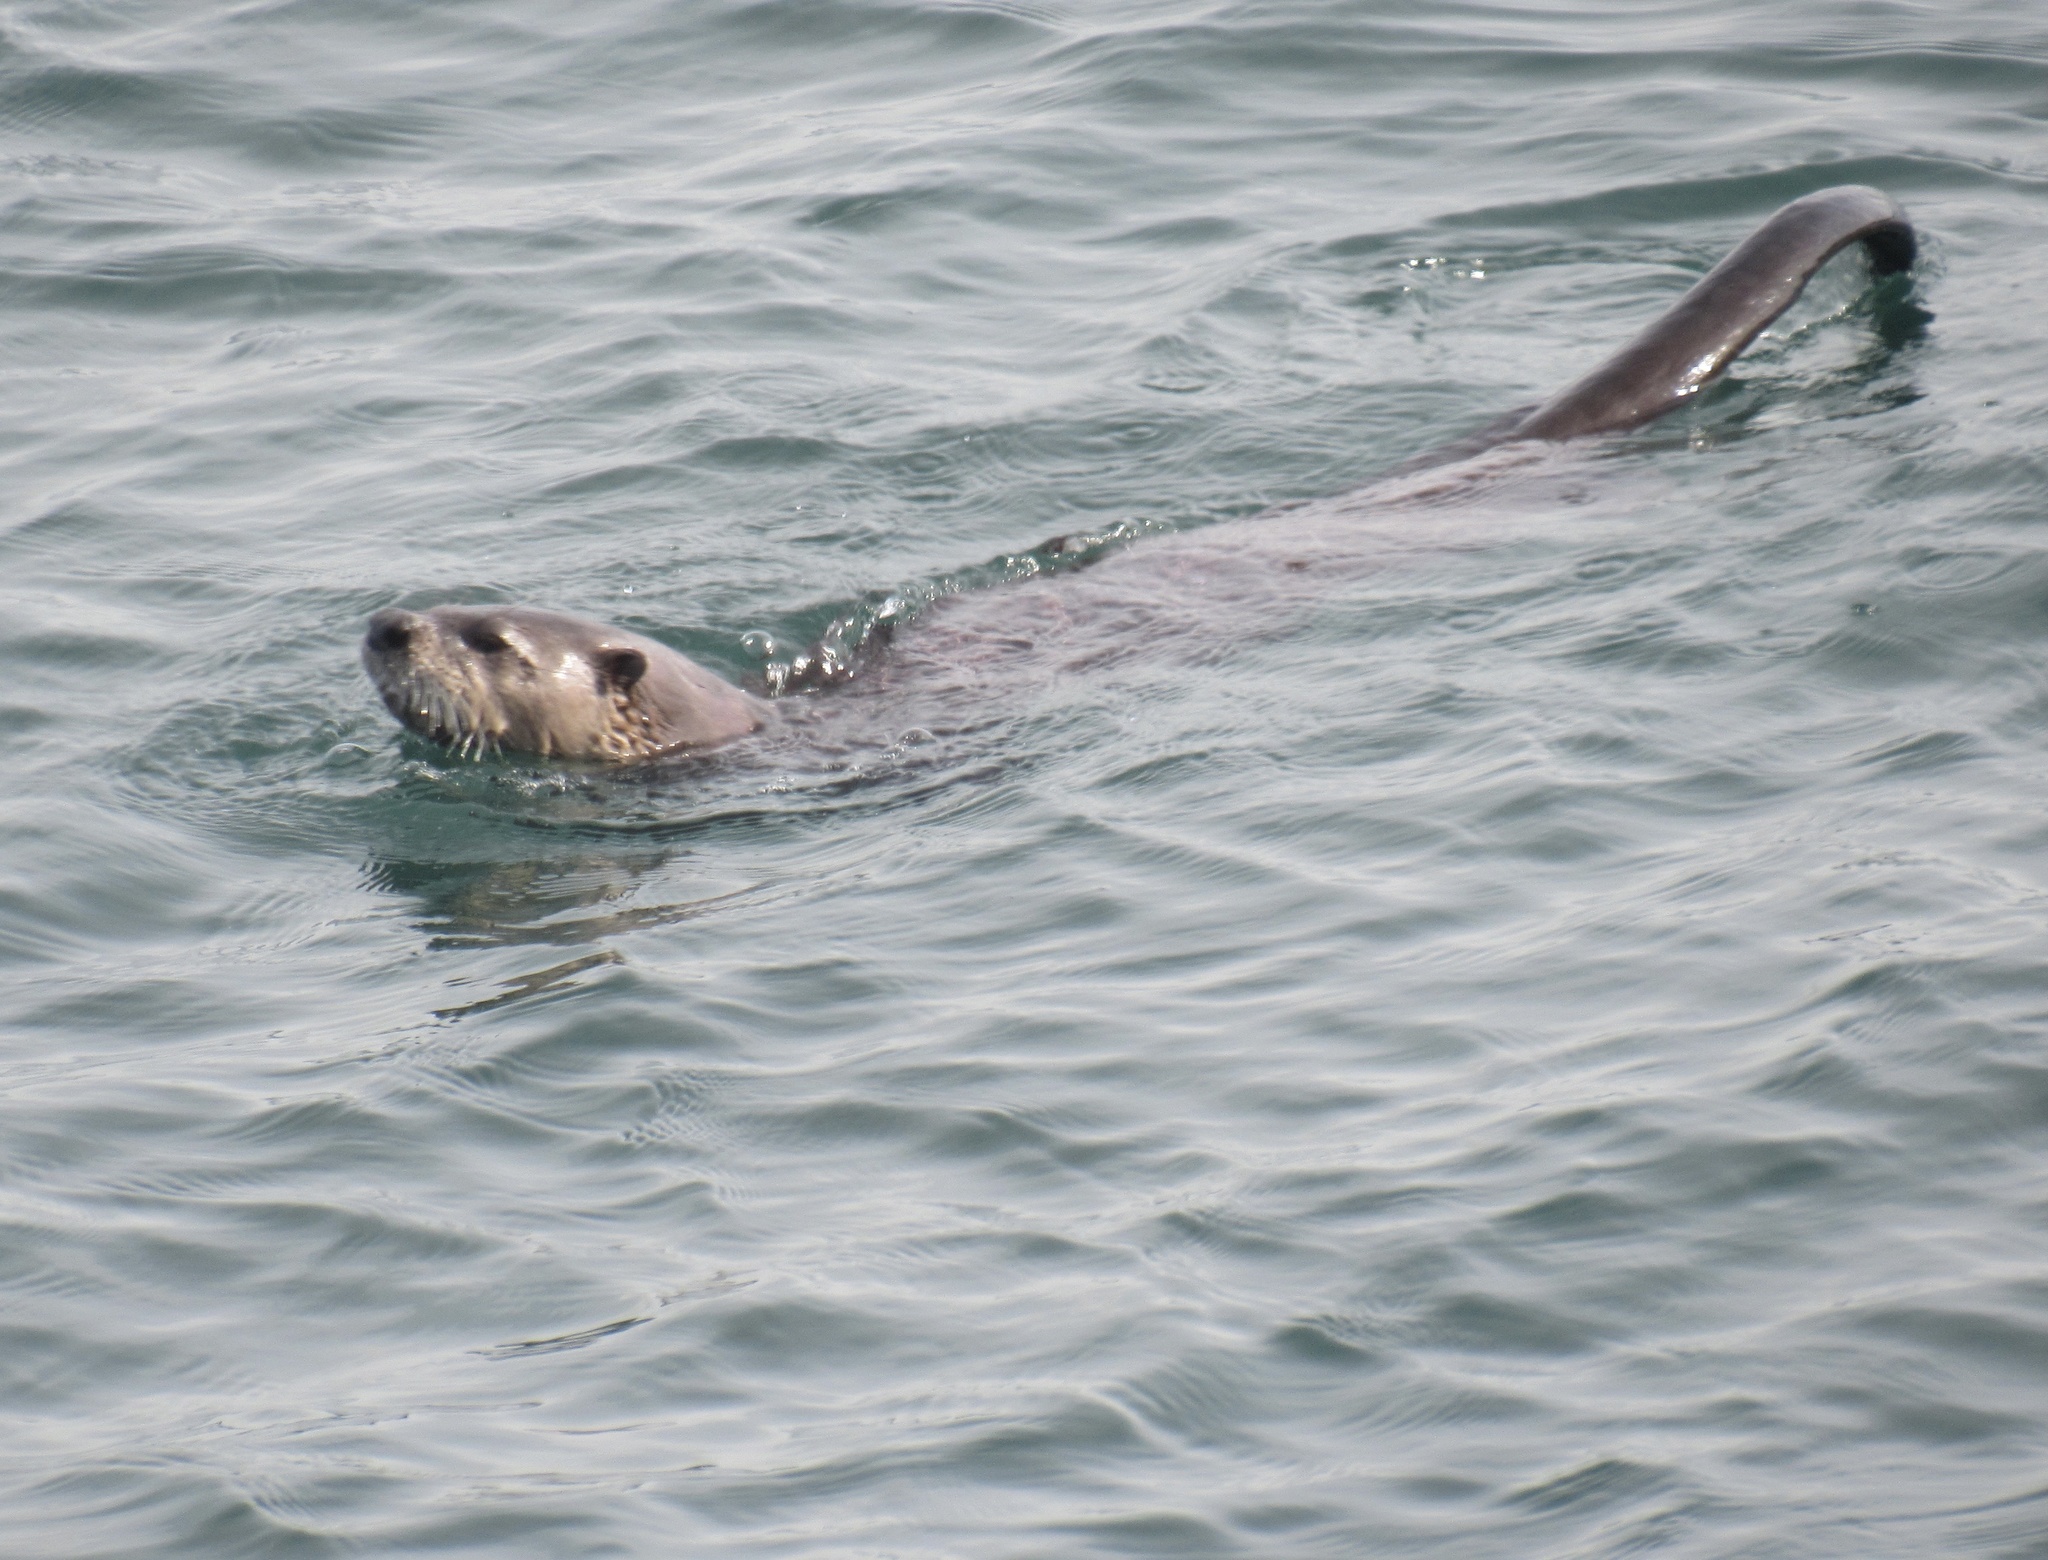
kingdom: Animalia
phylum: Chordata
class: Mammalia
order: Carnivora
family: Mustelidae
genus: Lontra
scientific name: Lontra canadensis
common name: North american river otter
